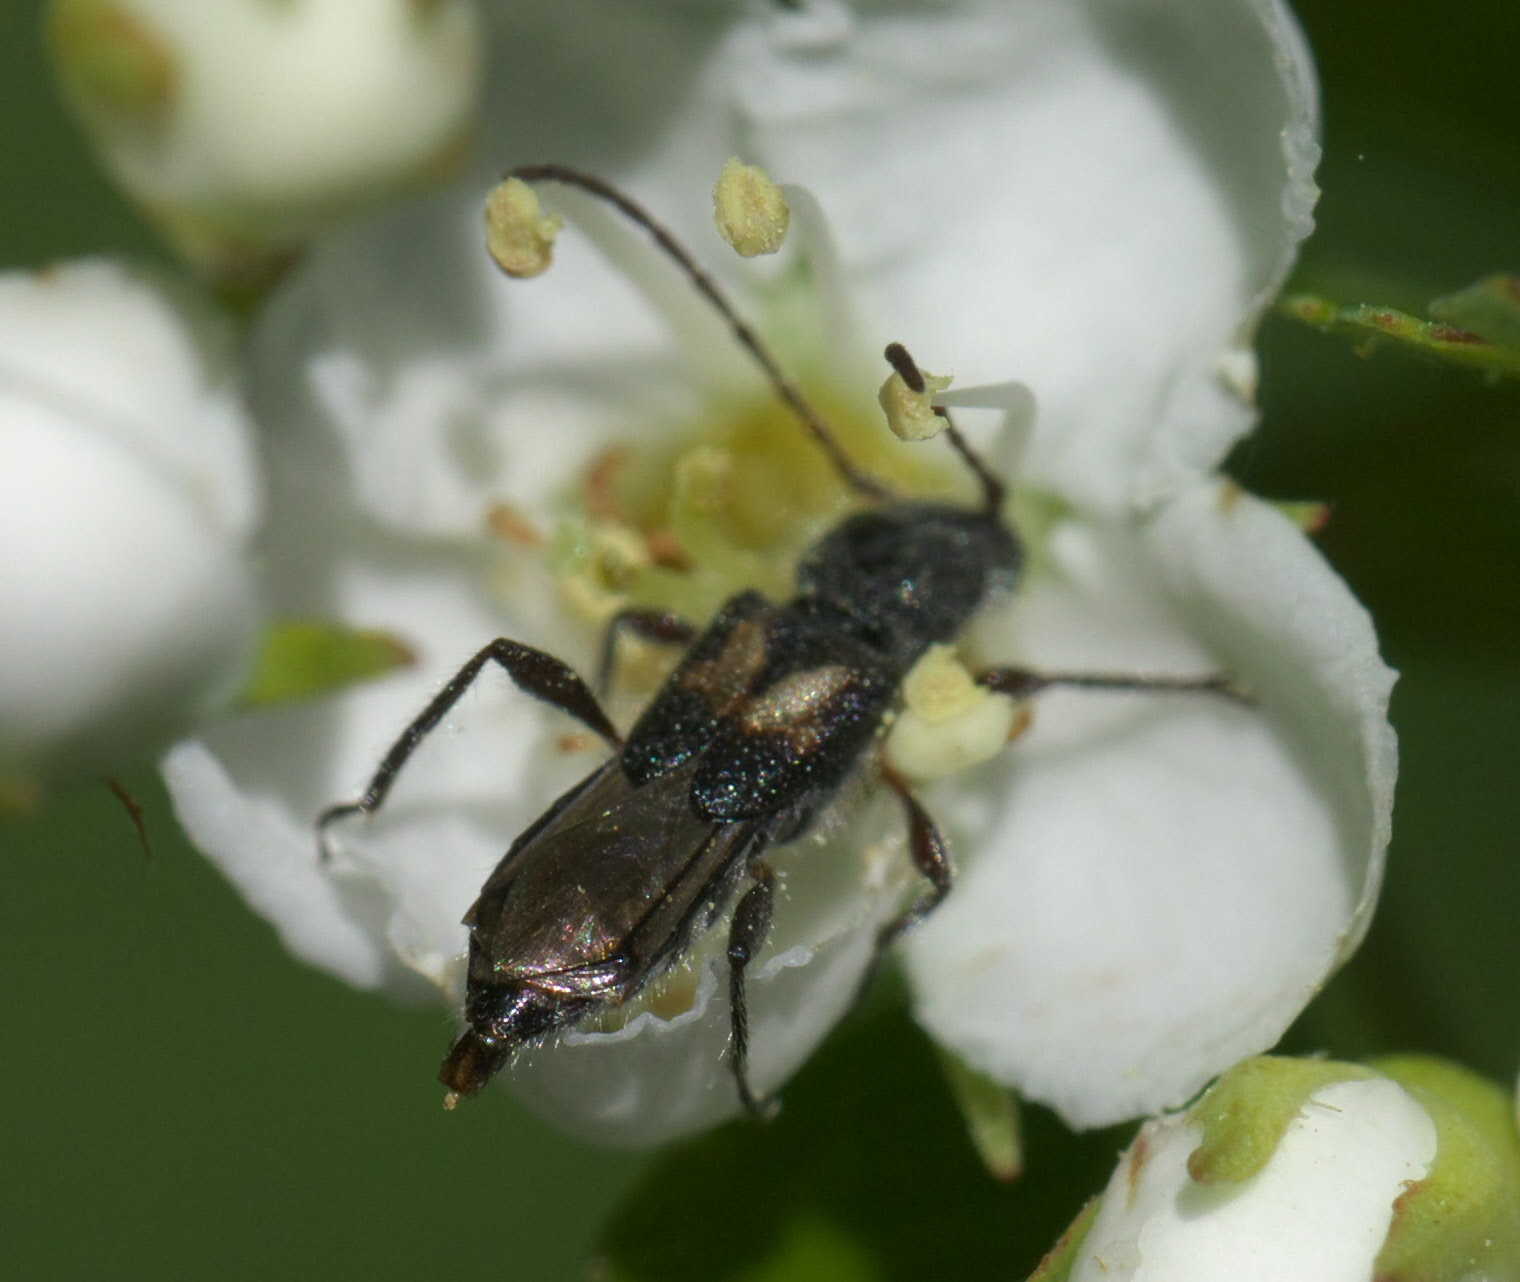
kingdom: Animalia
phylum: Arthropoda
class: Insecta
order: Coleoptera
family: Cerambycidae
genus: Molorchus
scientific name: Molorchus bimaculatus
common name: Bimaculate longhorn beetle
